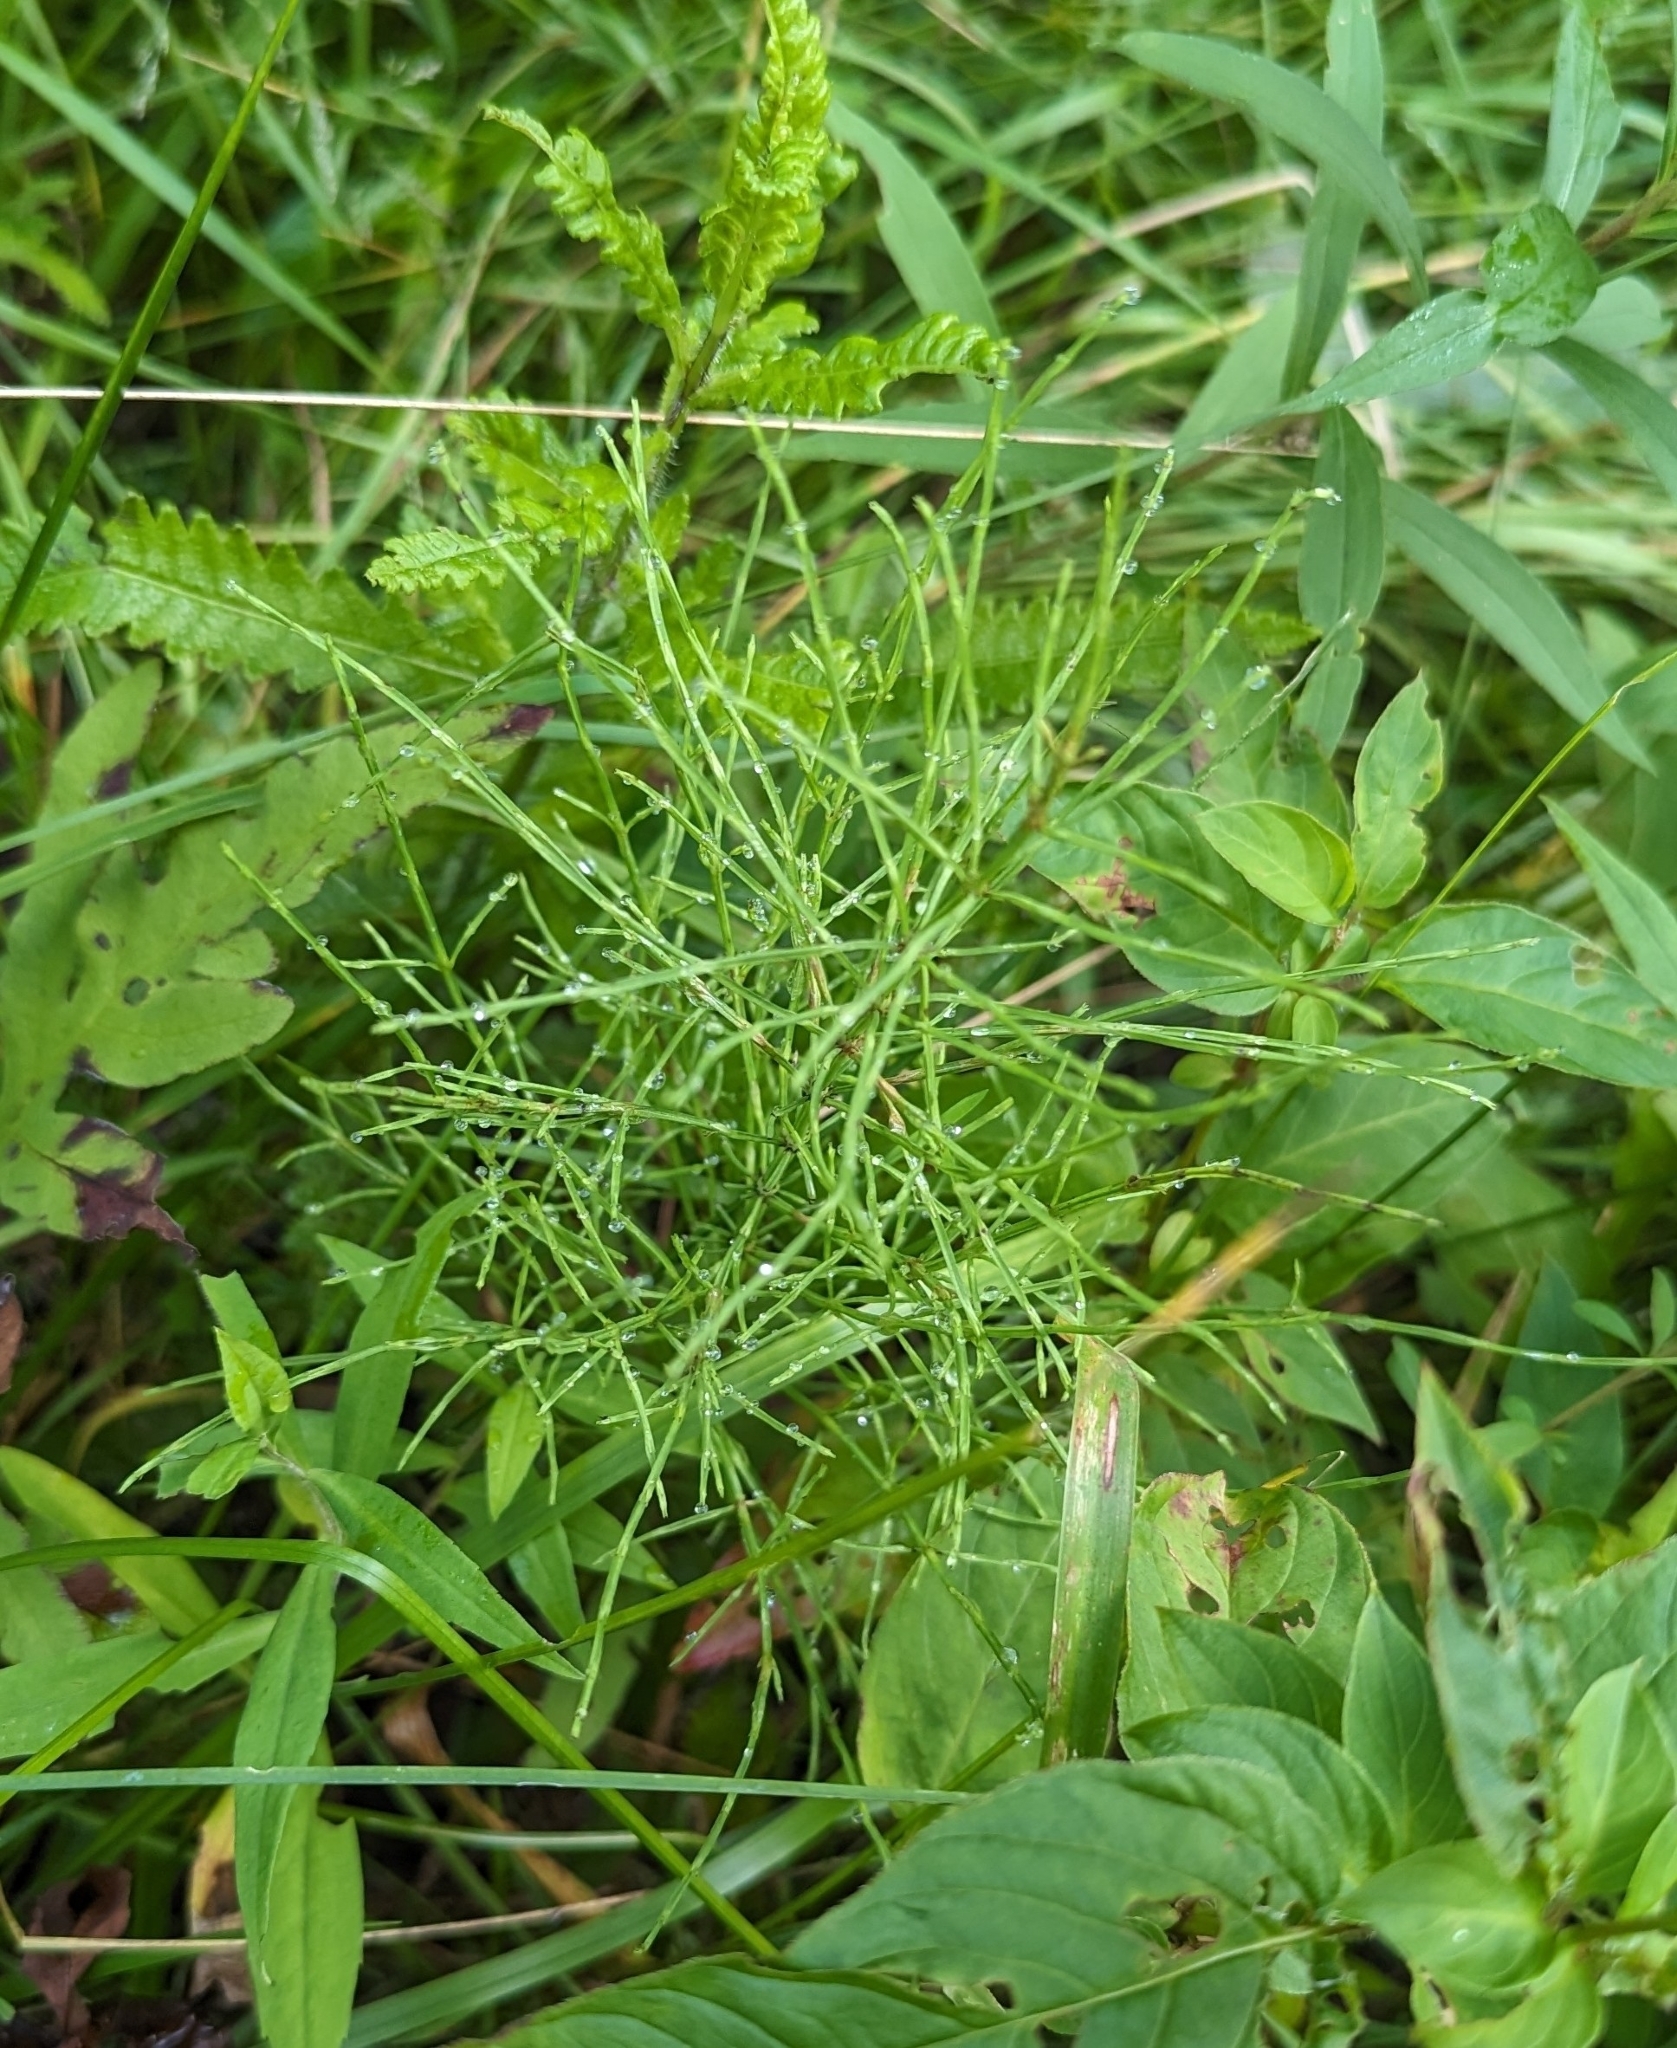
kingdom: Plantae
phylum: Tracheophyta
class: Polypodiopsida
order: Equisetales
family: Equisetaceae
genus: Equisetum
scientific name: Equisetum arvense
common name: Field horsetail
